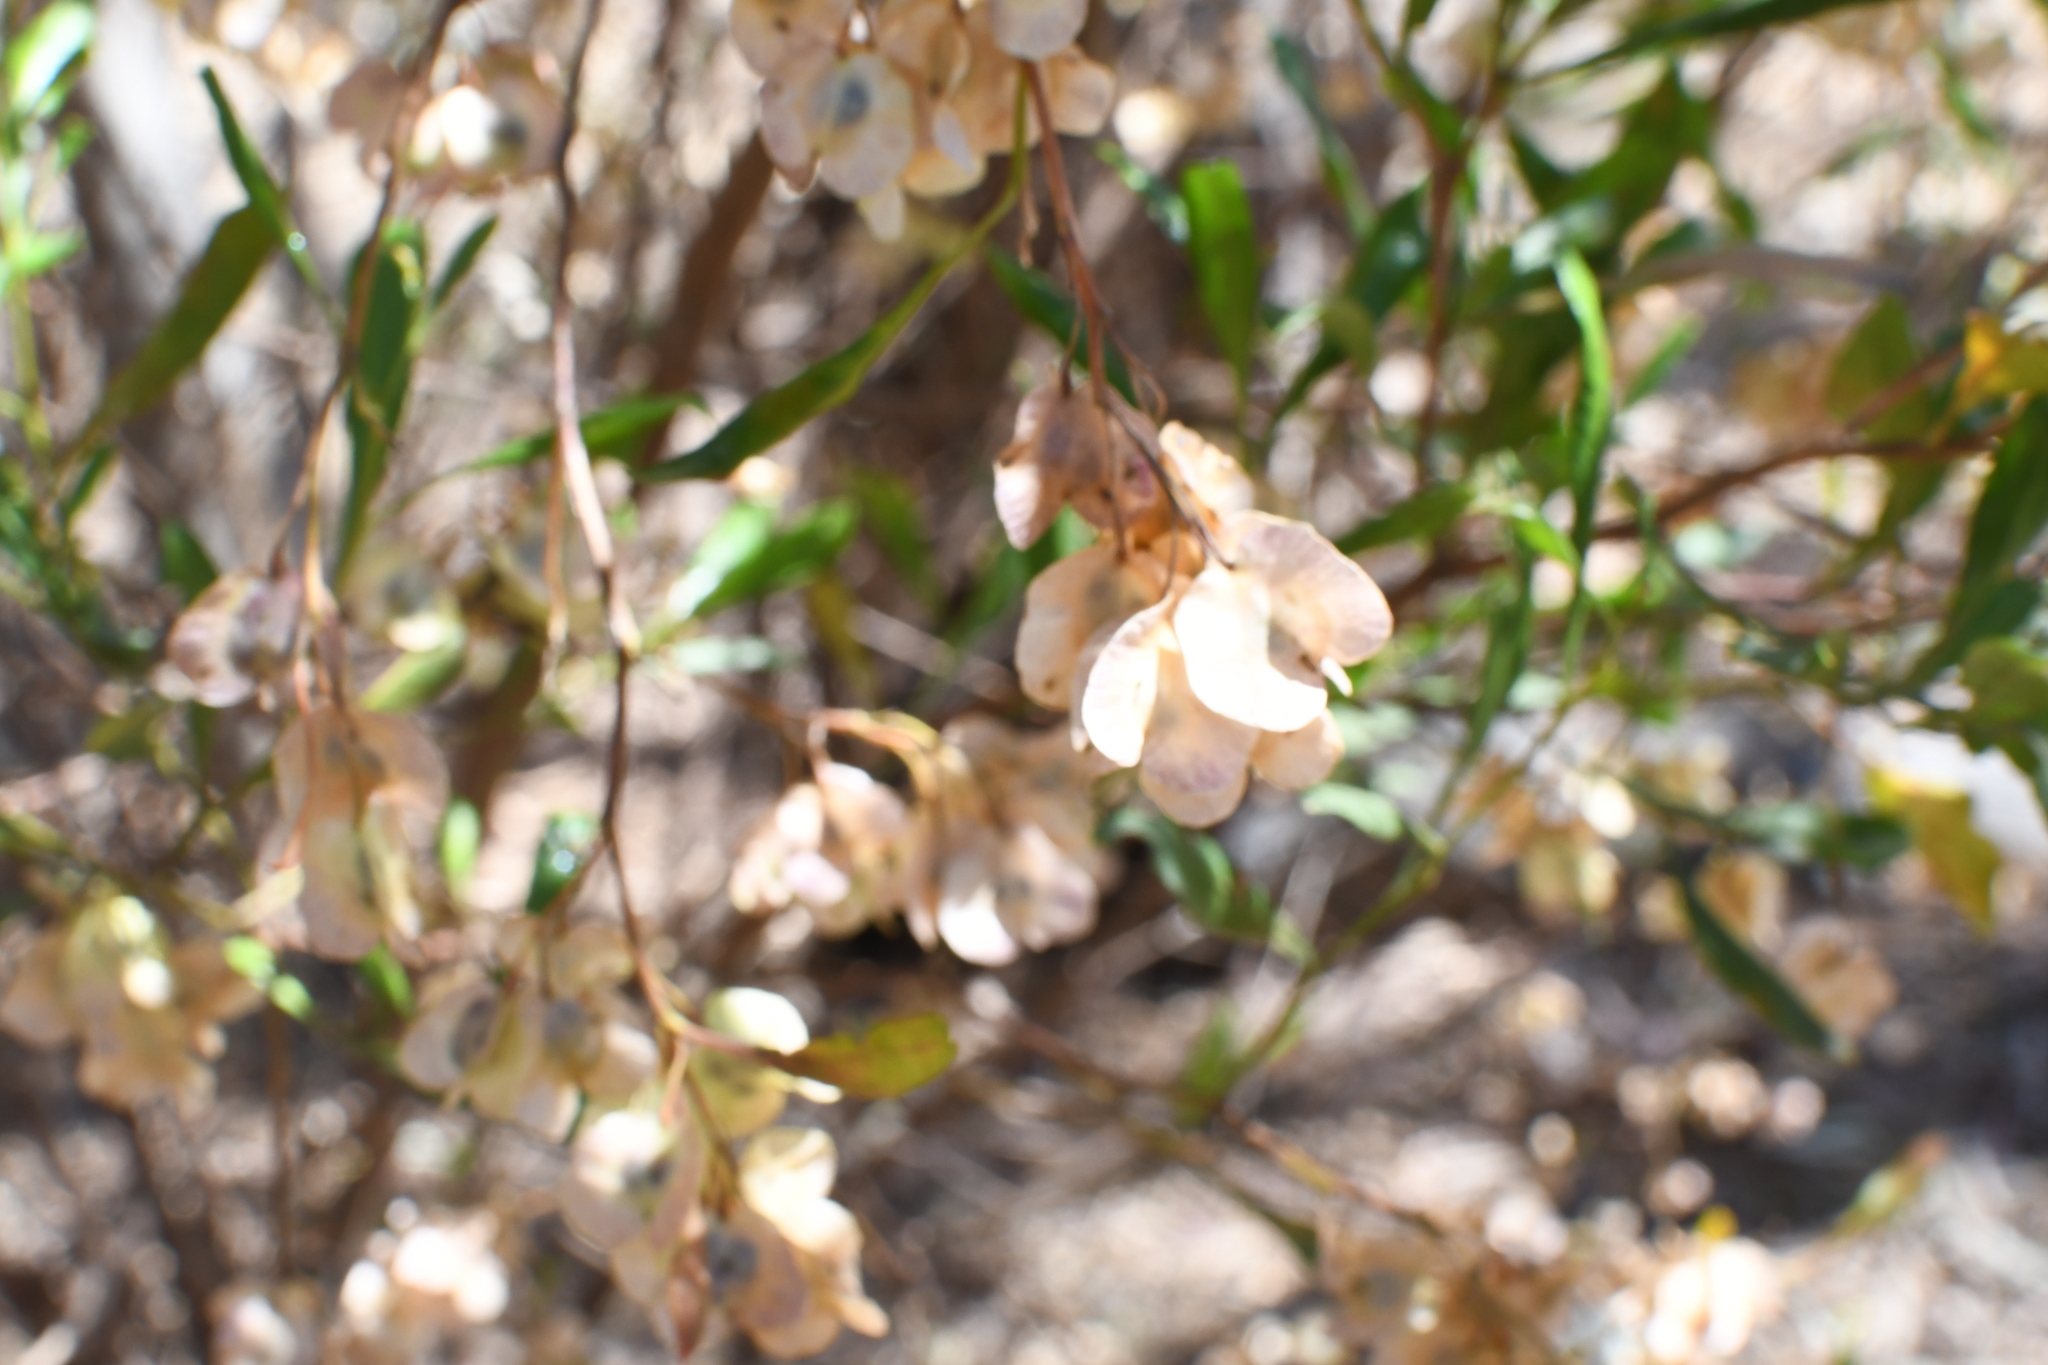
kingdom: Plantae
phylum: Tracheophyta
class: Magnoliopsida
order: Sapindales
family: Sapindaceae
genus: Dodonaea
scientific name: Dodonaea viscosa
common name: Hopbush
